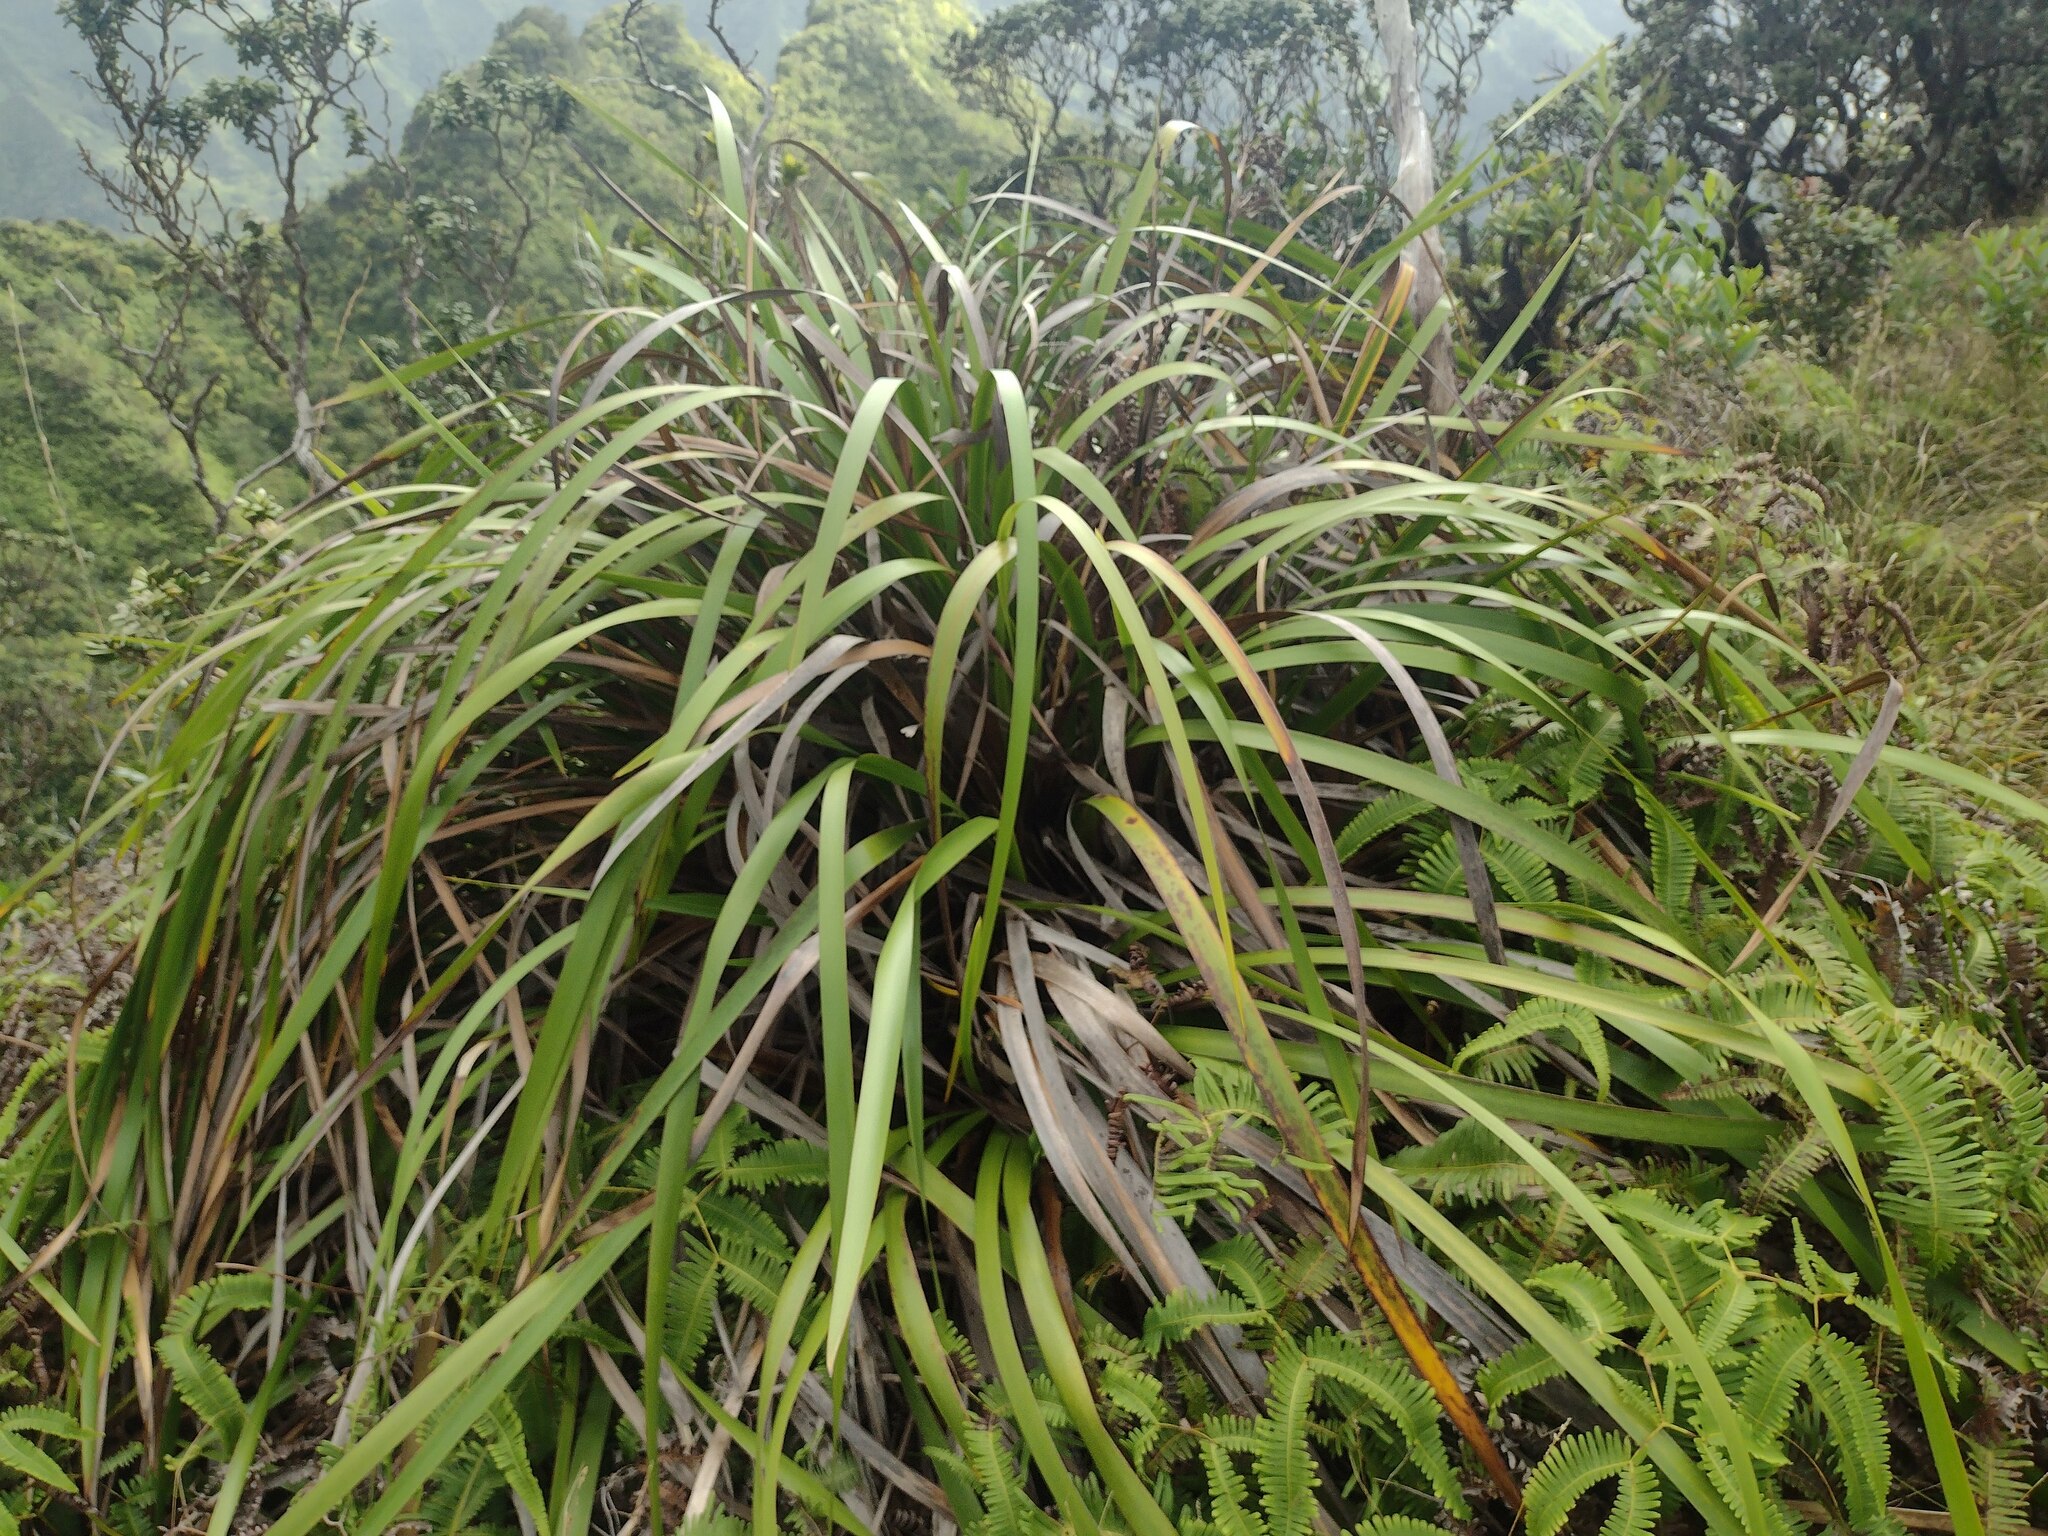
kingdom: Plantae
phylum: Tracheophyta
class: Liliopsida
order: Poales
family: Cyperaceae
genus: Machaerina
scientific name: Machaerina angustifolia
